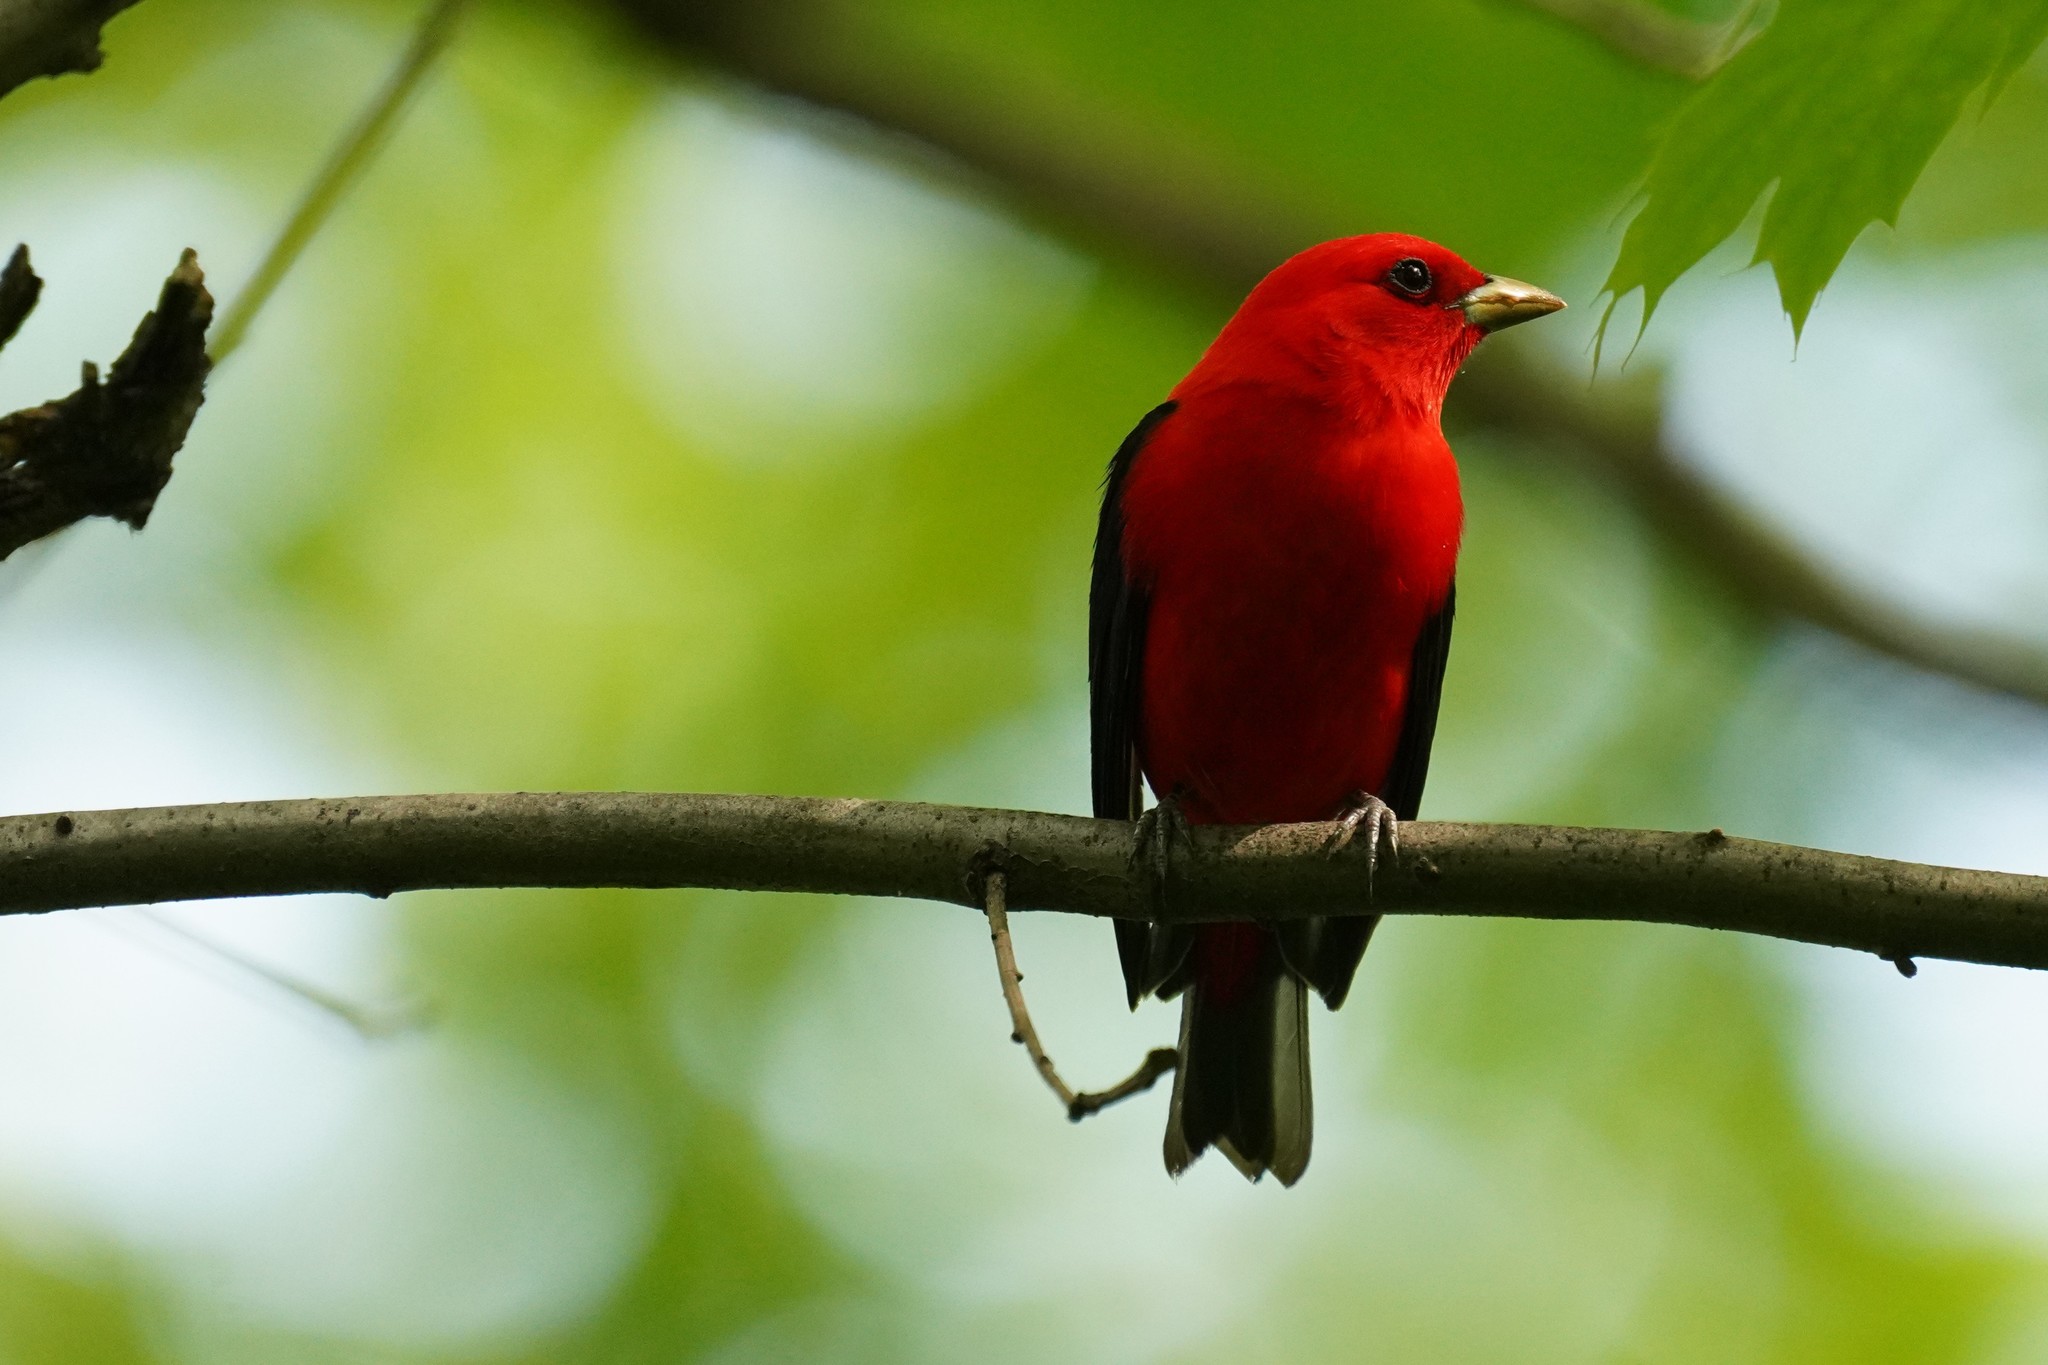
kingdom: Animalia
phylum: Chordata
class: Aves
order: Passeriformes
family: Cardinalidae
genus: Piranga
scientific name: Piranga olivacea
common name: Scarlet tanager
